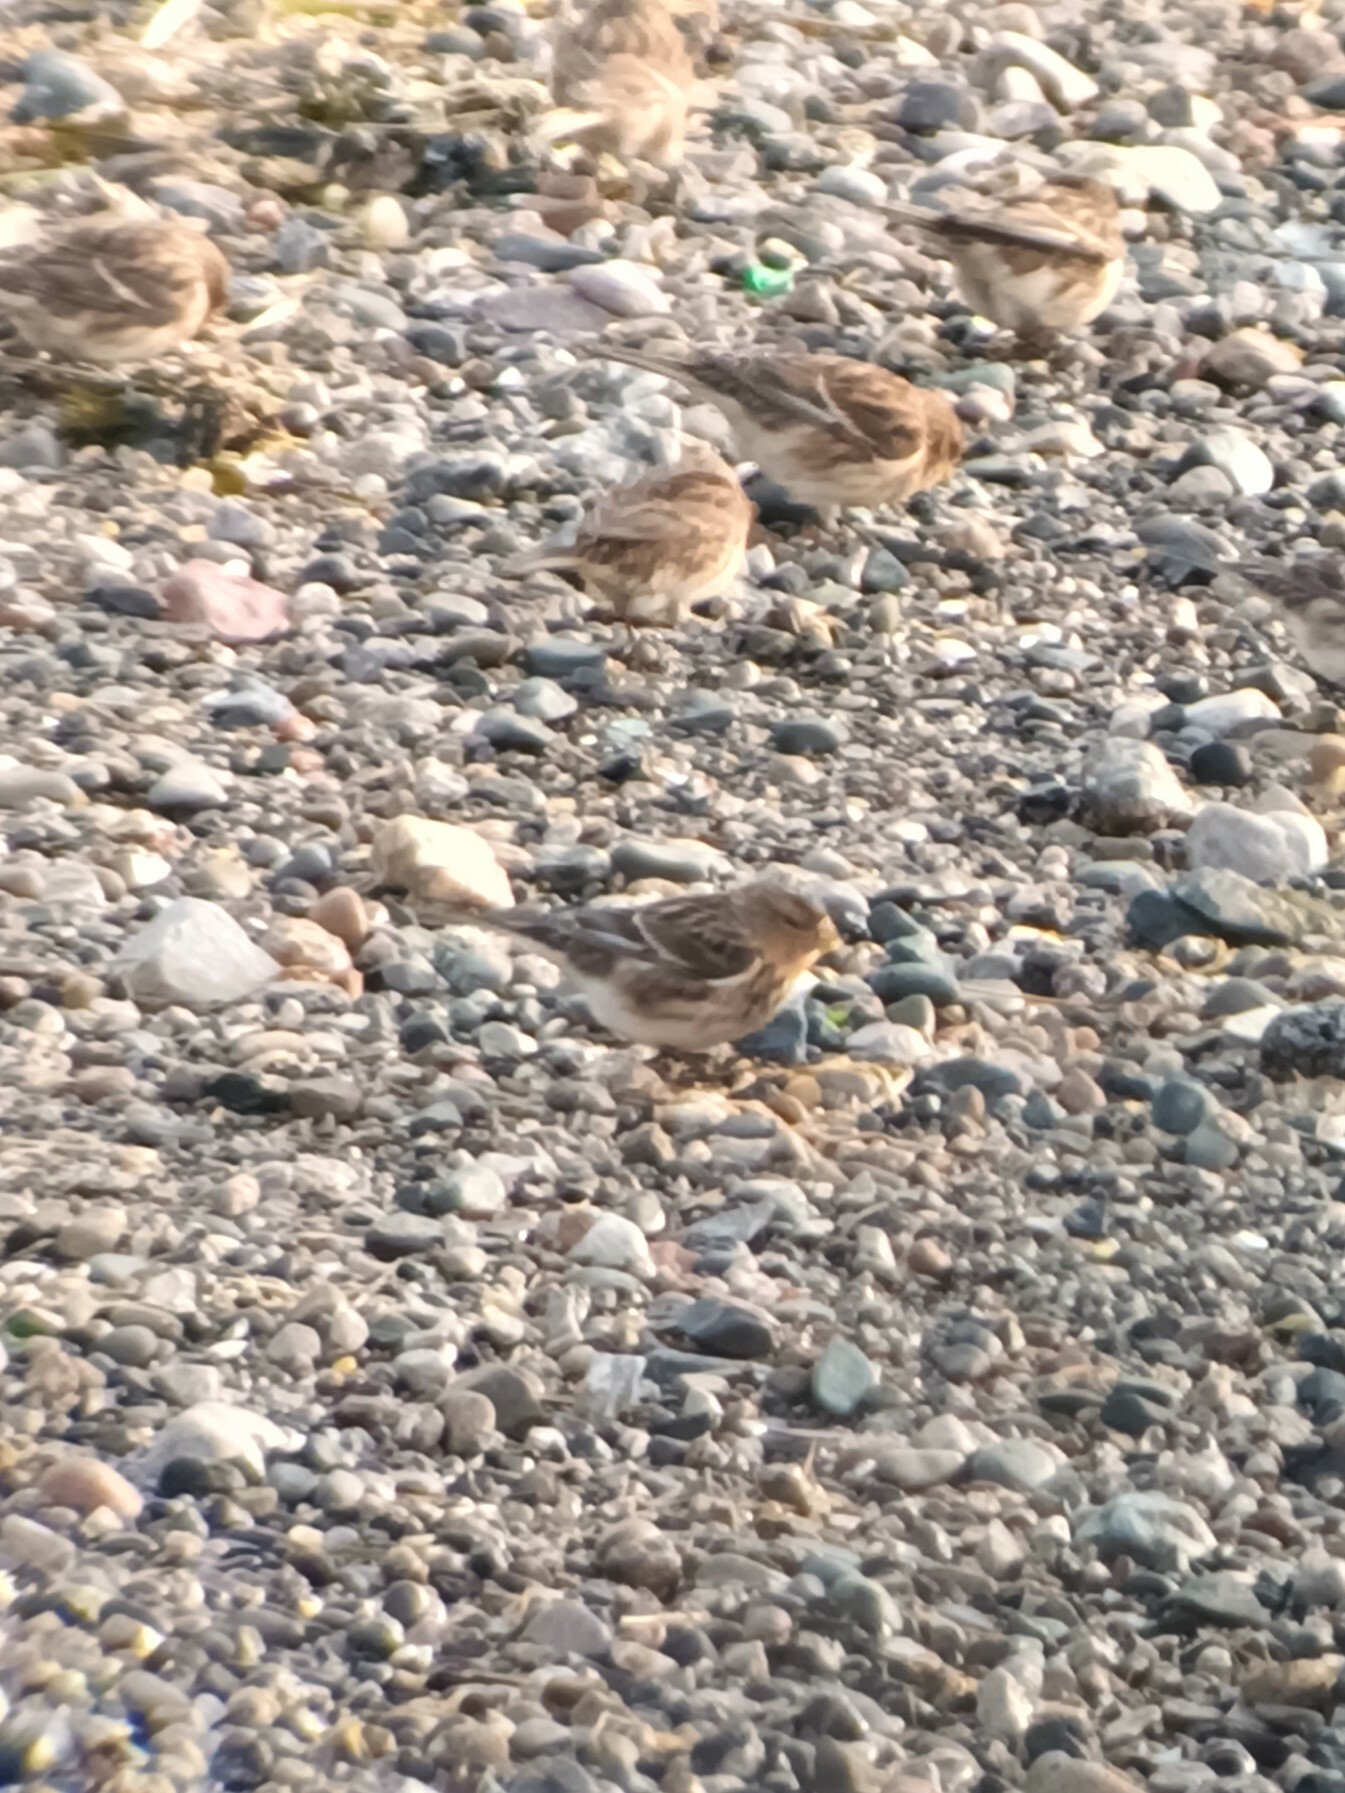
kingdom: Animalia
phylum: Chordata
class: Aves
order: Passeriformes
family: Fringillidae
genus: Linaria
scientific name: Linaria flavirostris
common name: Twite
